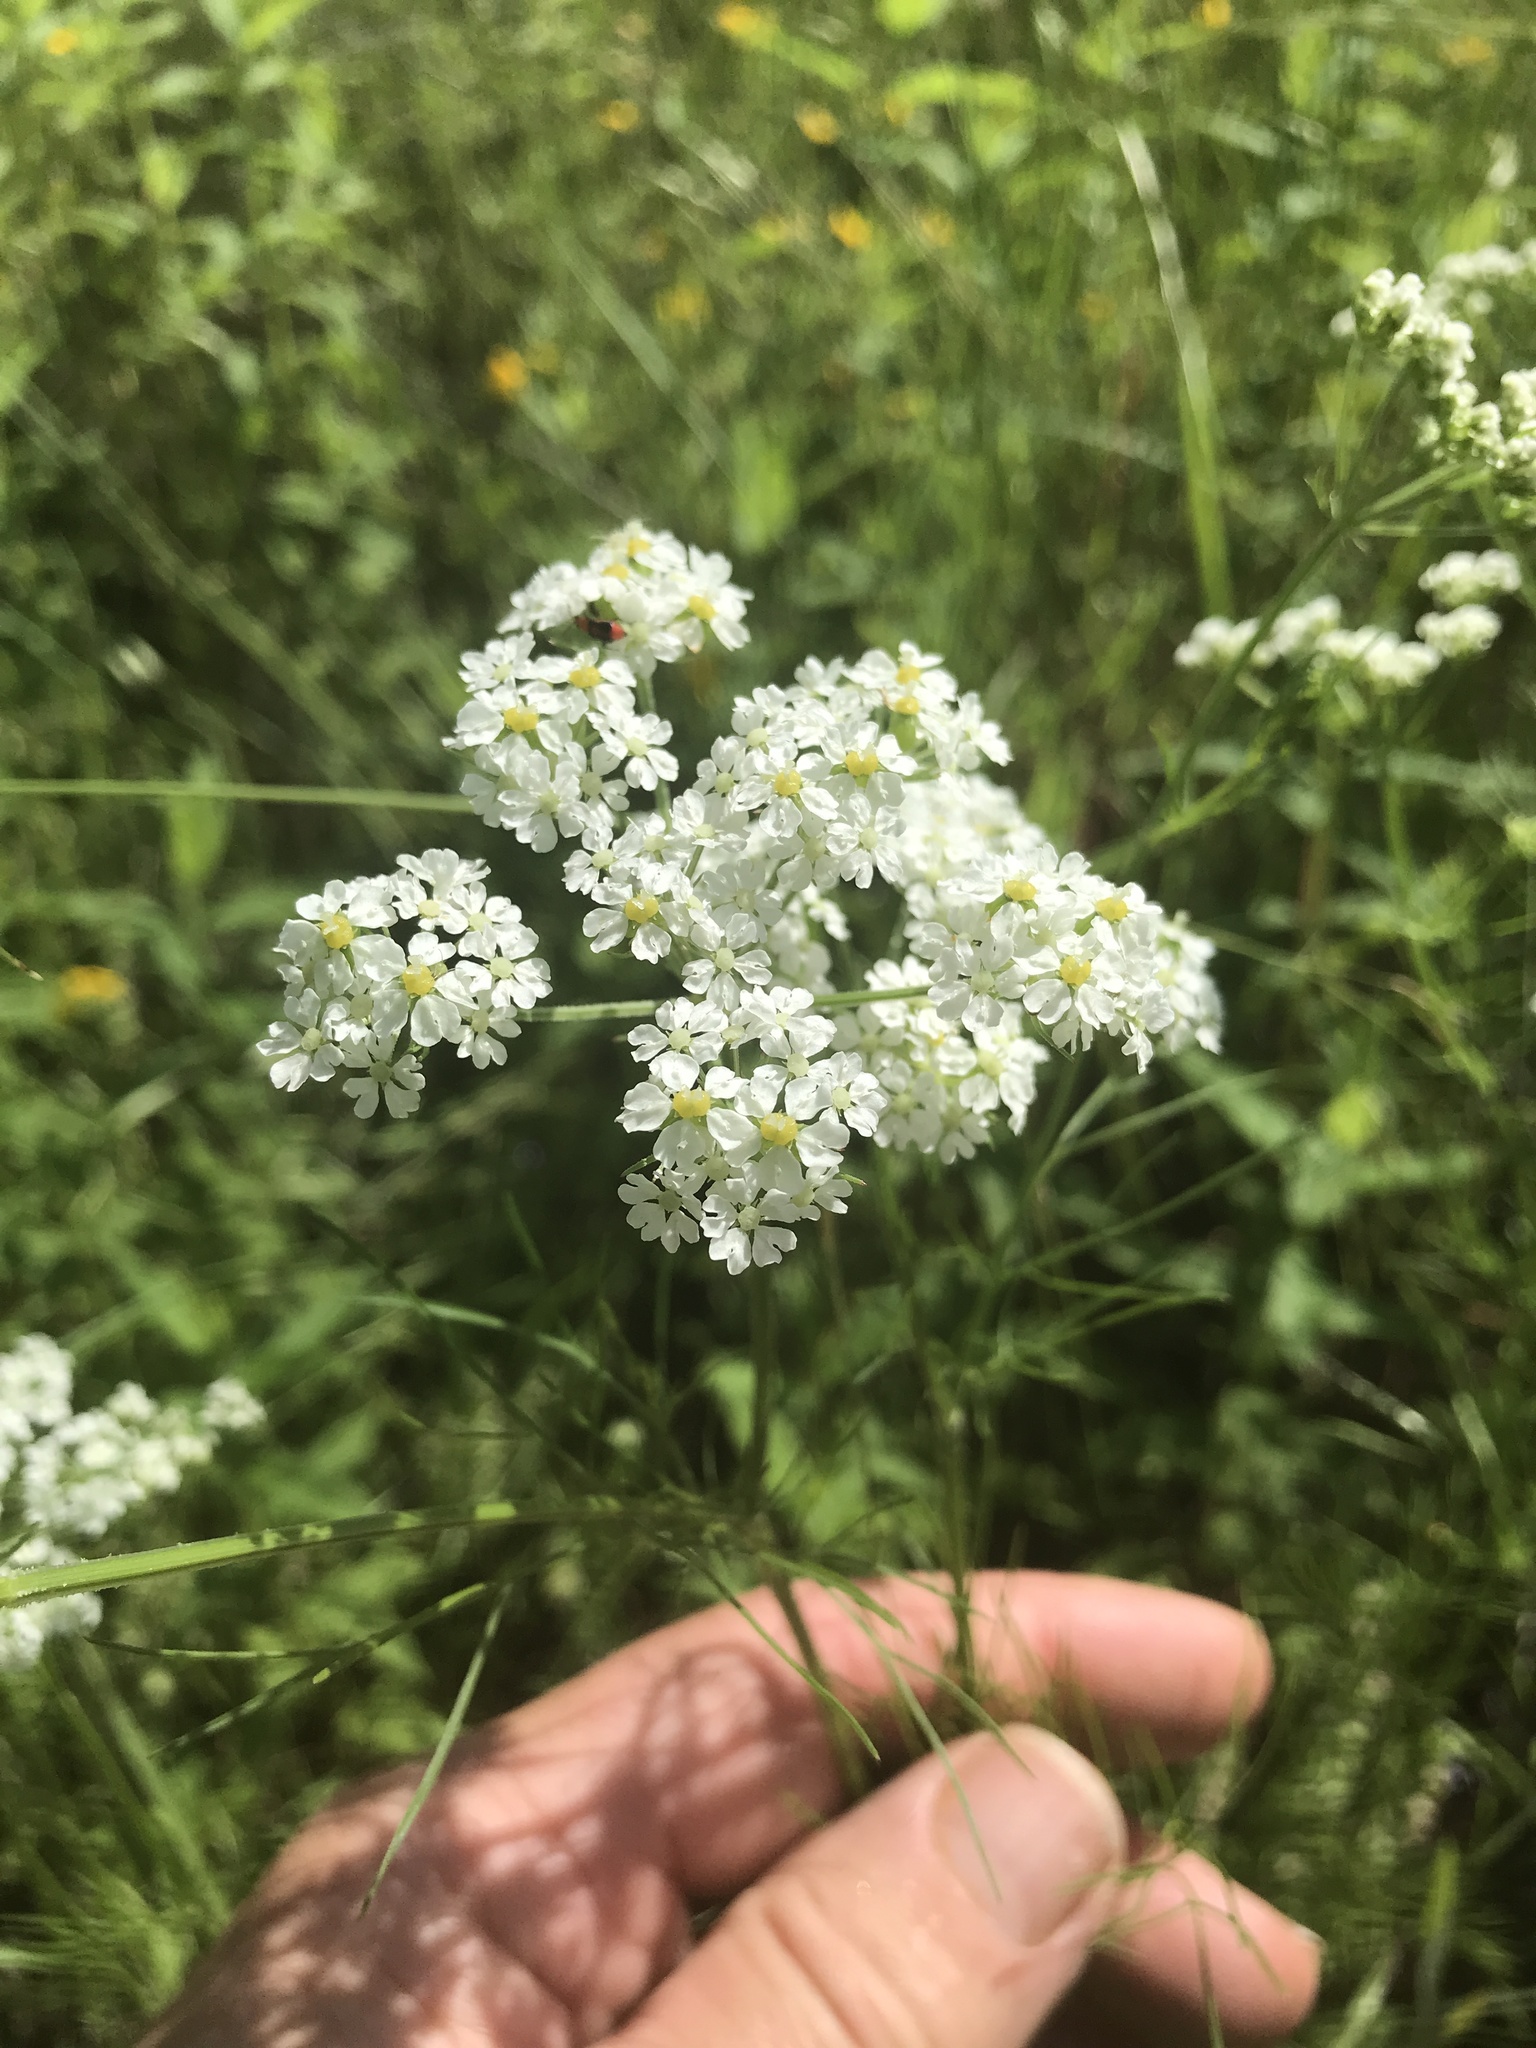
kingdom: Plantae
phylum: Tracheophyta
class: Magnoliopsida
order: Apiales
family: Apiaceae
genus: Atrema
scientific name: Atrema americanum
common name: Prairie-bishop
